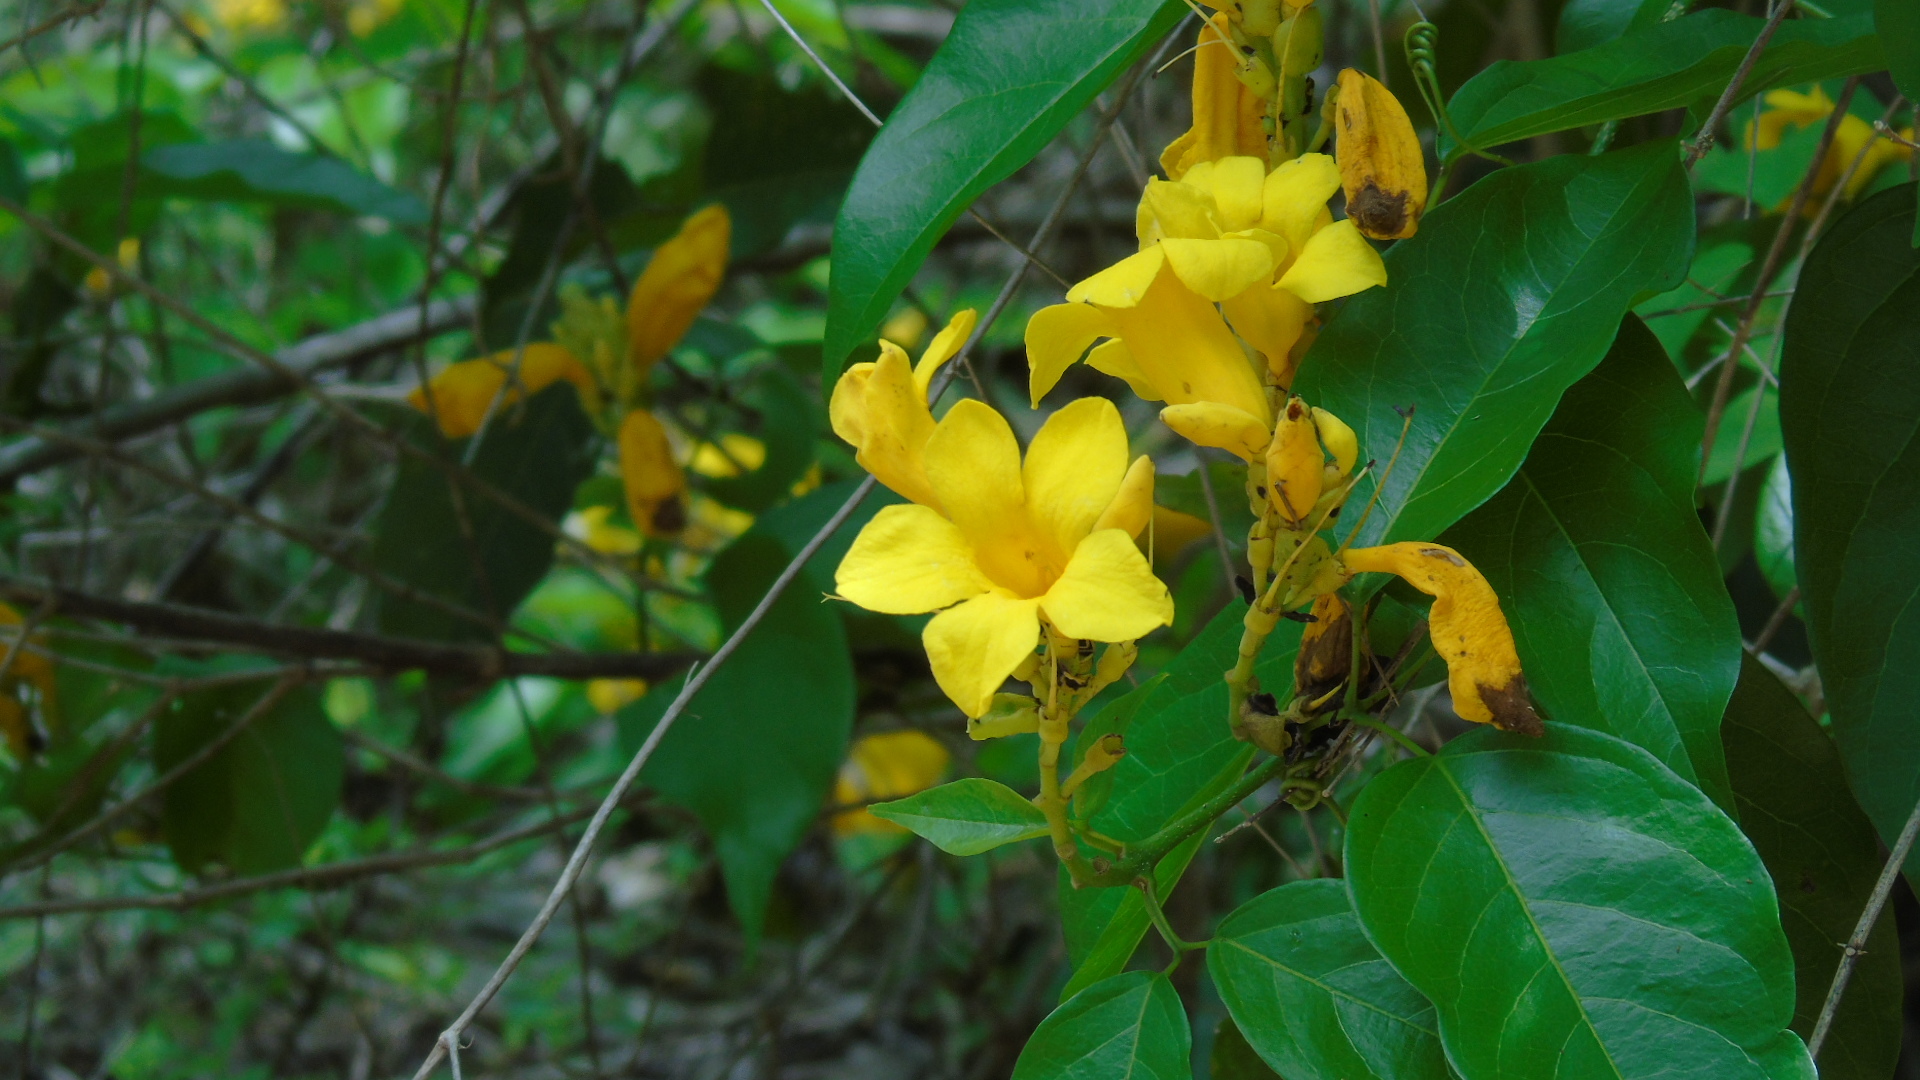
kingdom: Plantae
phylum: Tracheophyta
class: Magnoliopsida
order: Lamiales
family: Bignoniaceae
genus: Adenocalymma
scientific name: Adenocalymma inundatum
